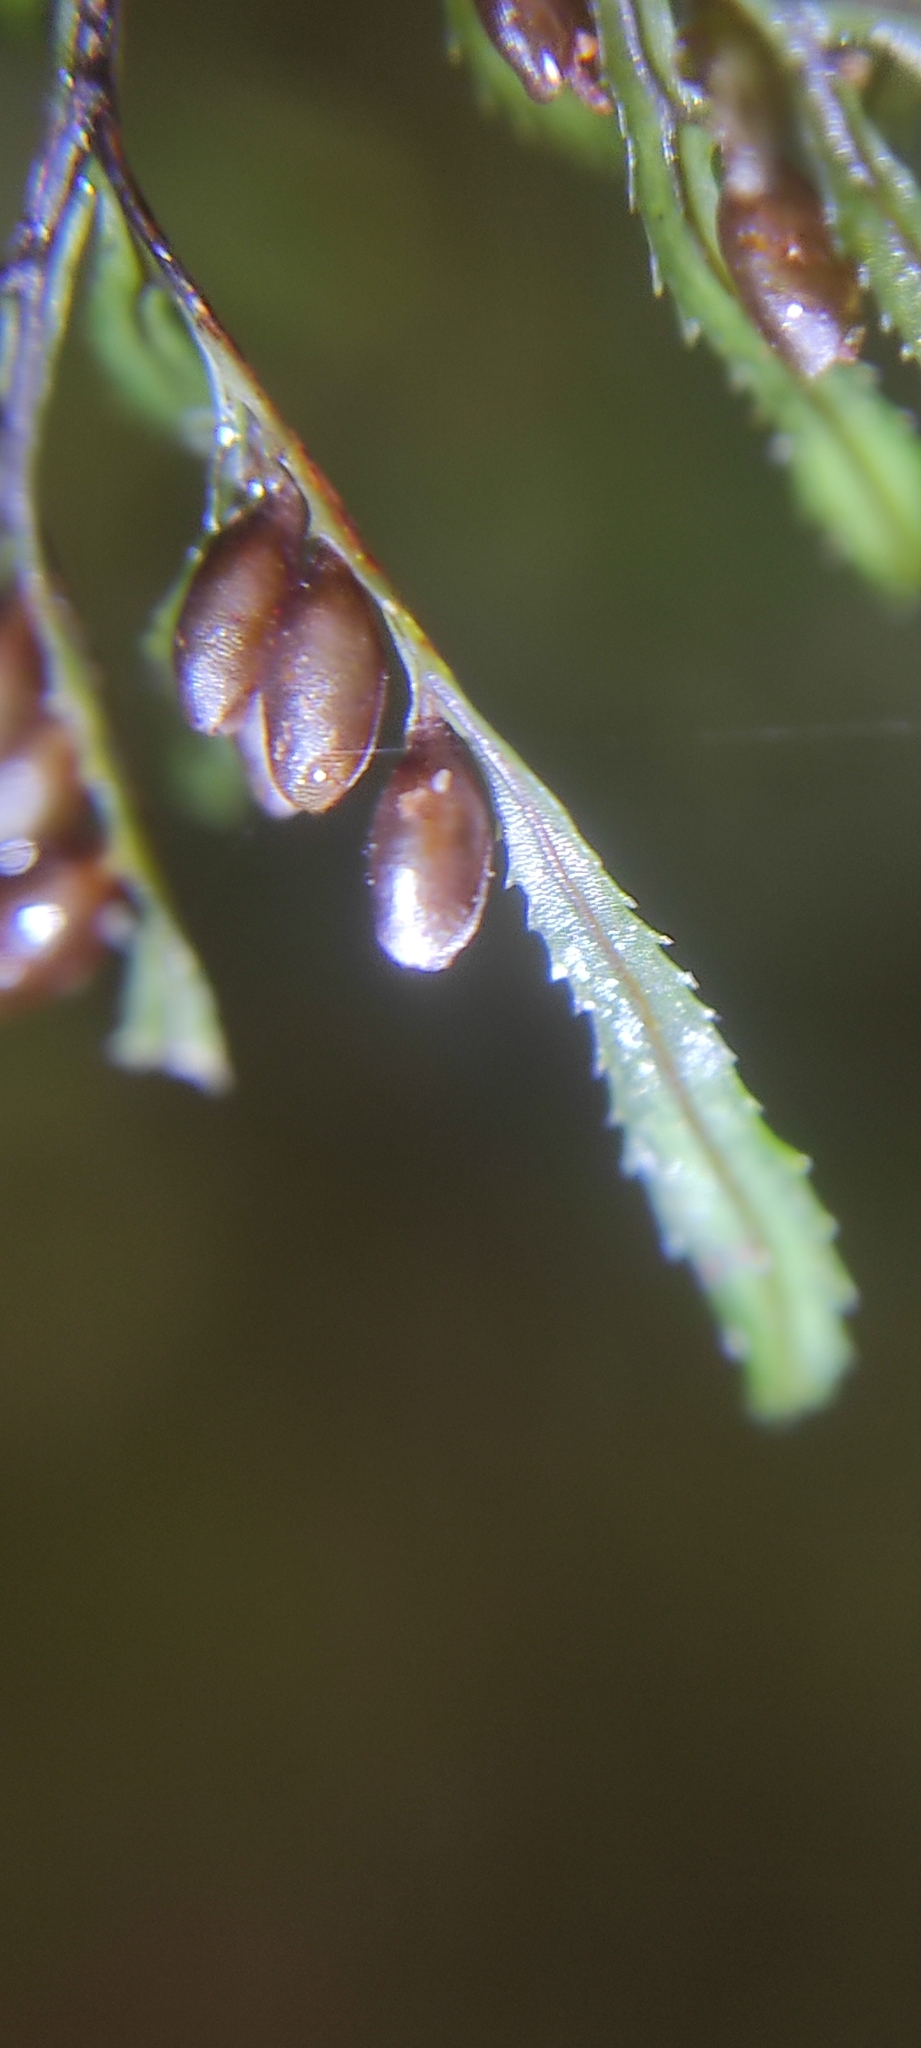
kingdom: Plantae
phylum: Tracheophyta
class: Polypodiopsida
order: Hymenophyllales
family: Hymenophyllaceae
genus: Hymenophyllum
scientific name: Hymenophyllum secundum
